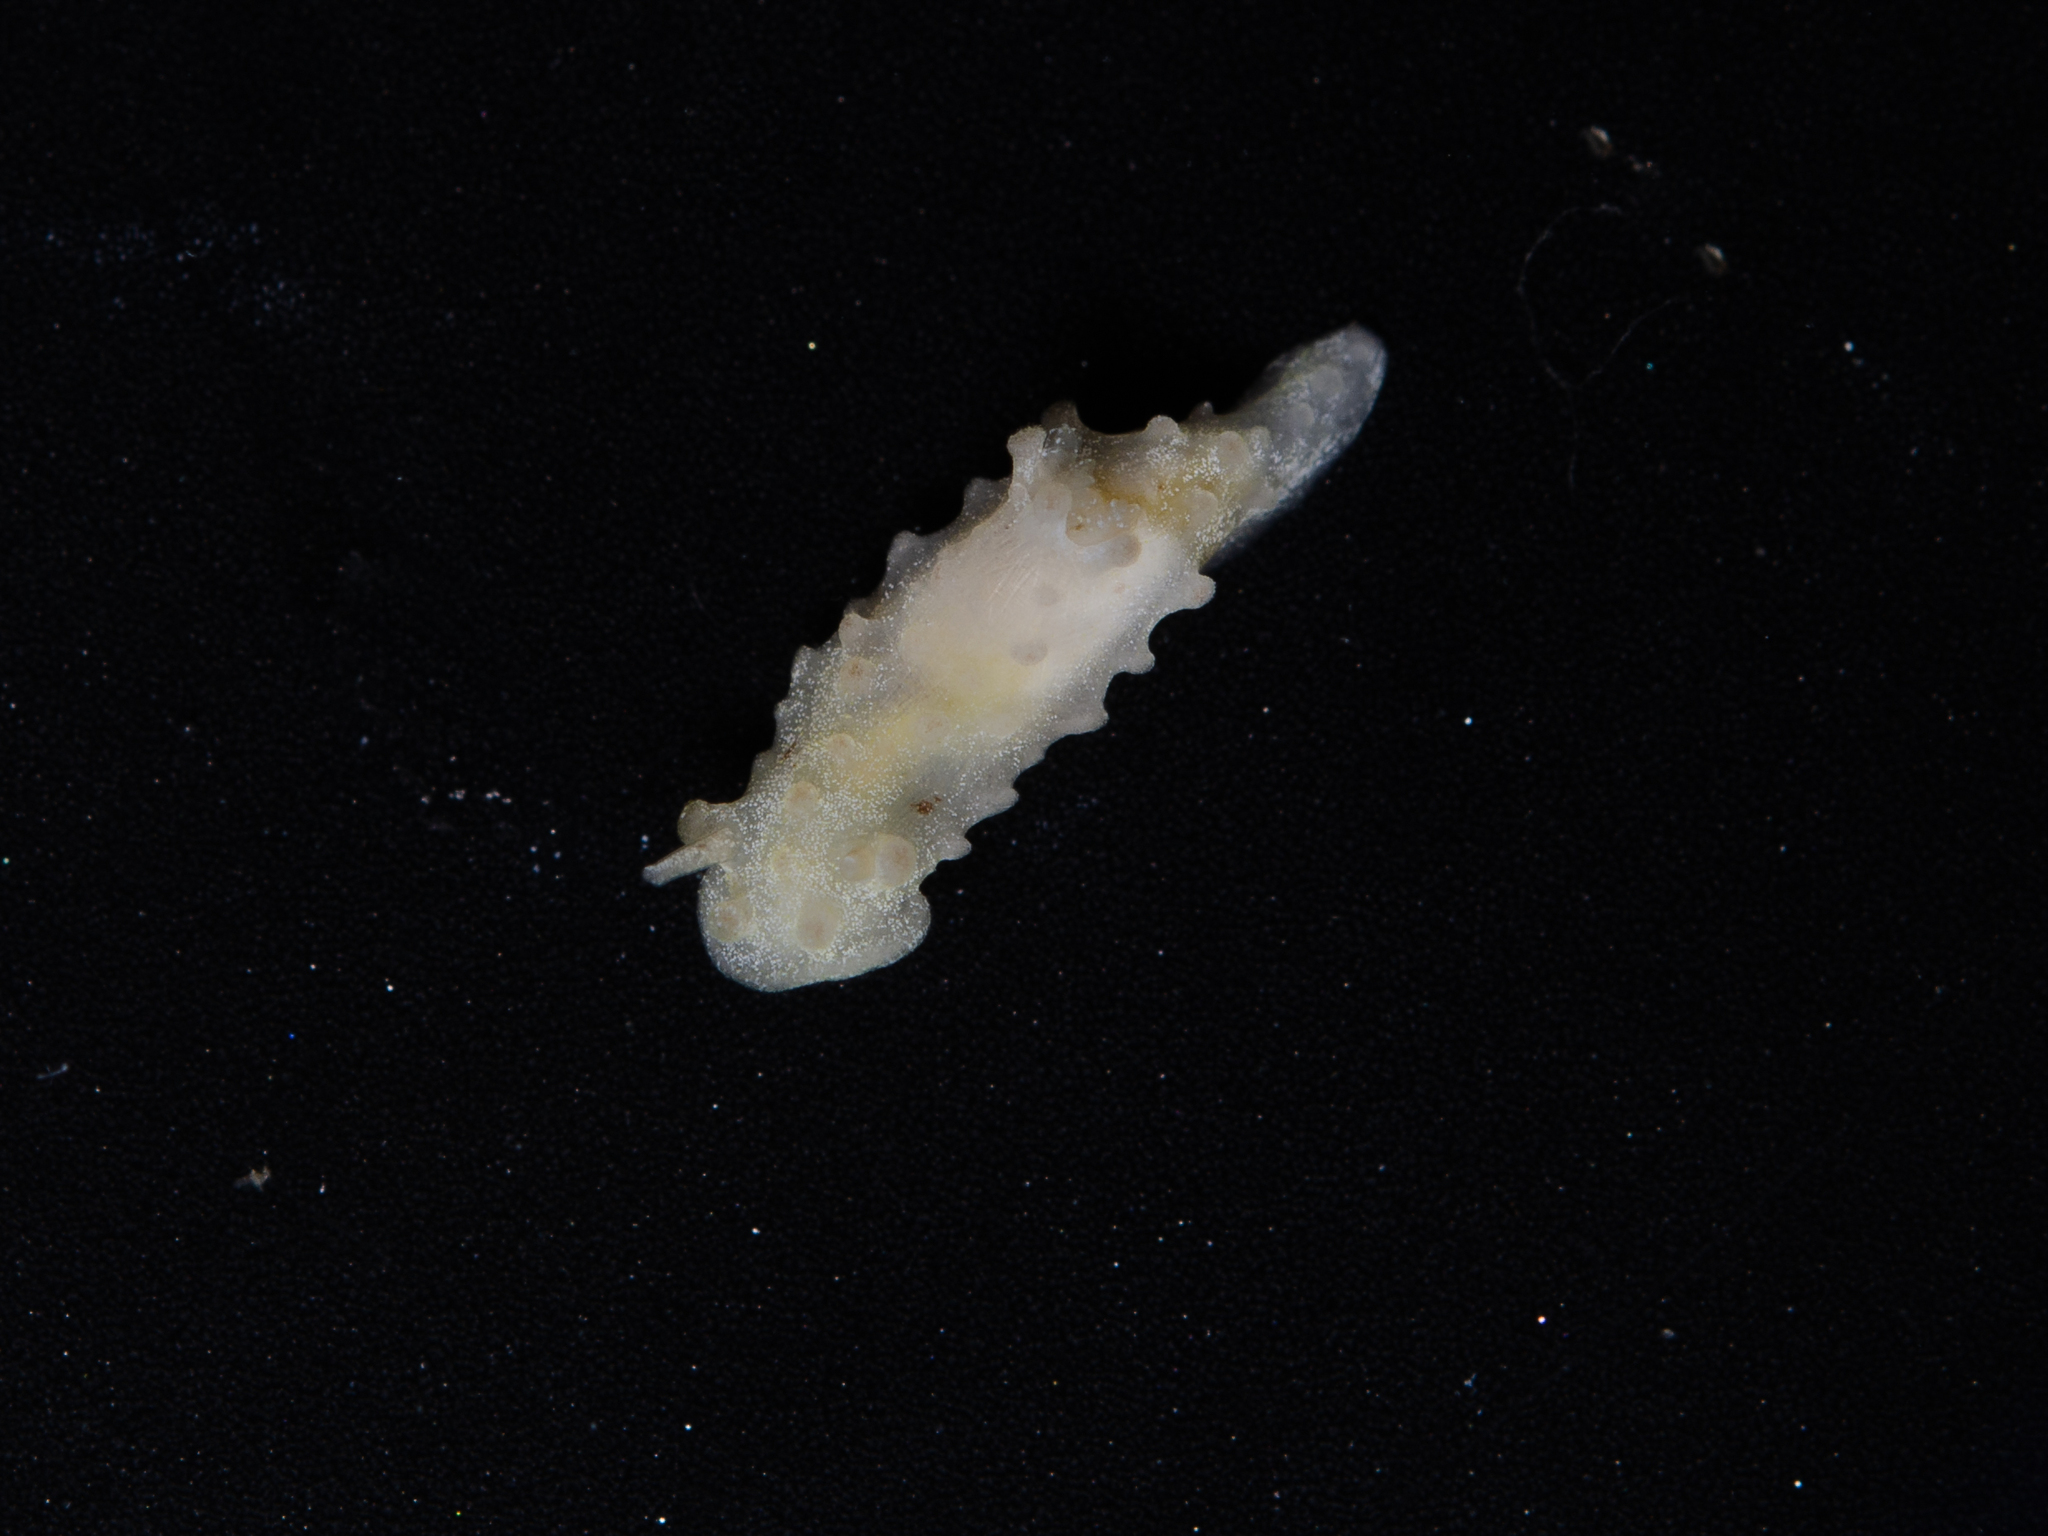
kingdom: Animalia
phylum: Mollusca
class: Gastropoda
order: Nudibranchia
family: Aegiridae
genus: Aegires
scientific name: Aegires ortizi
